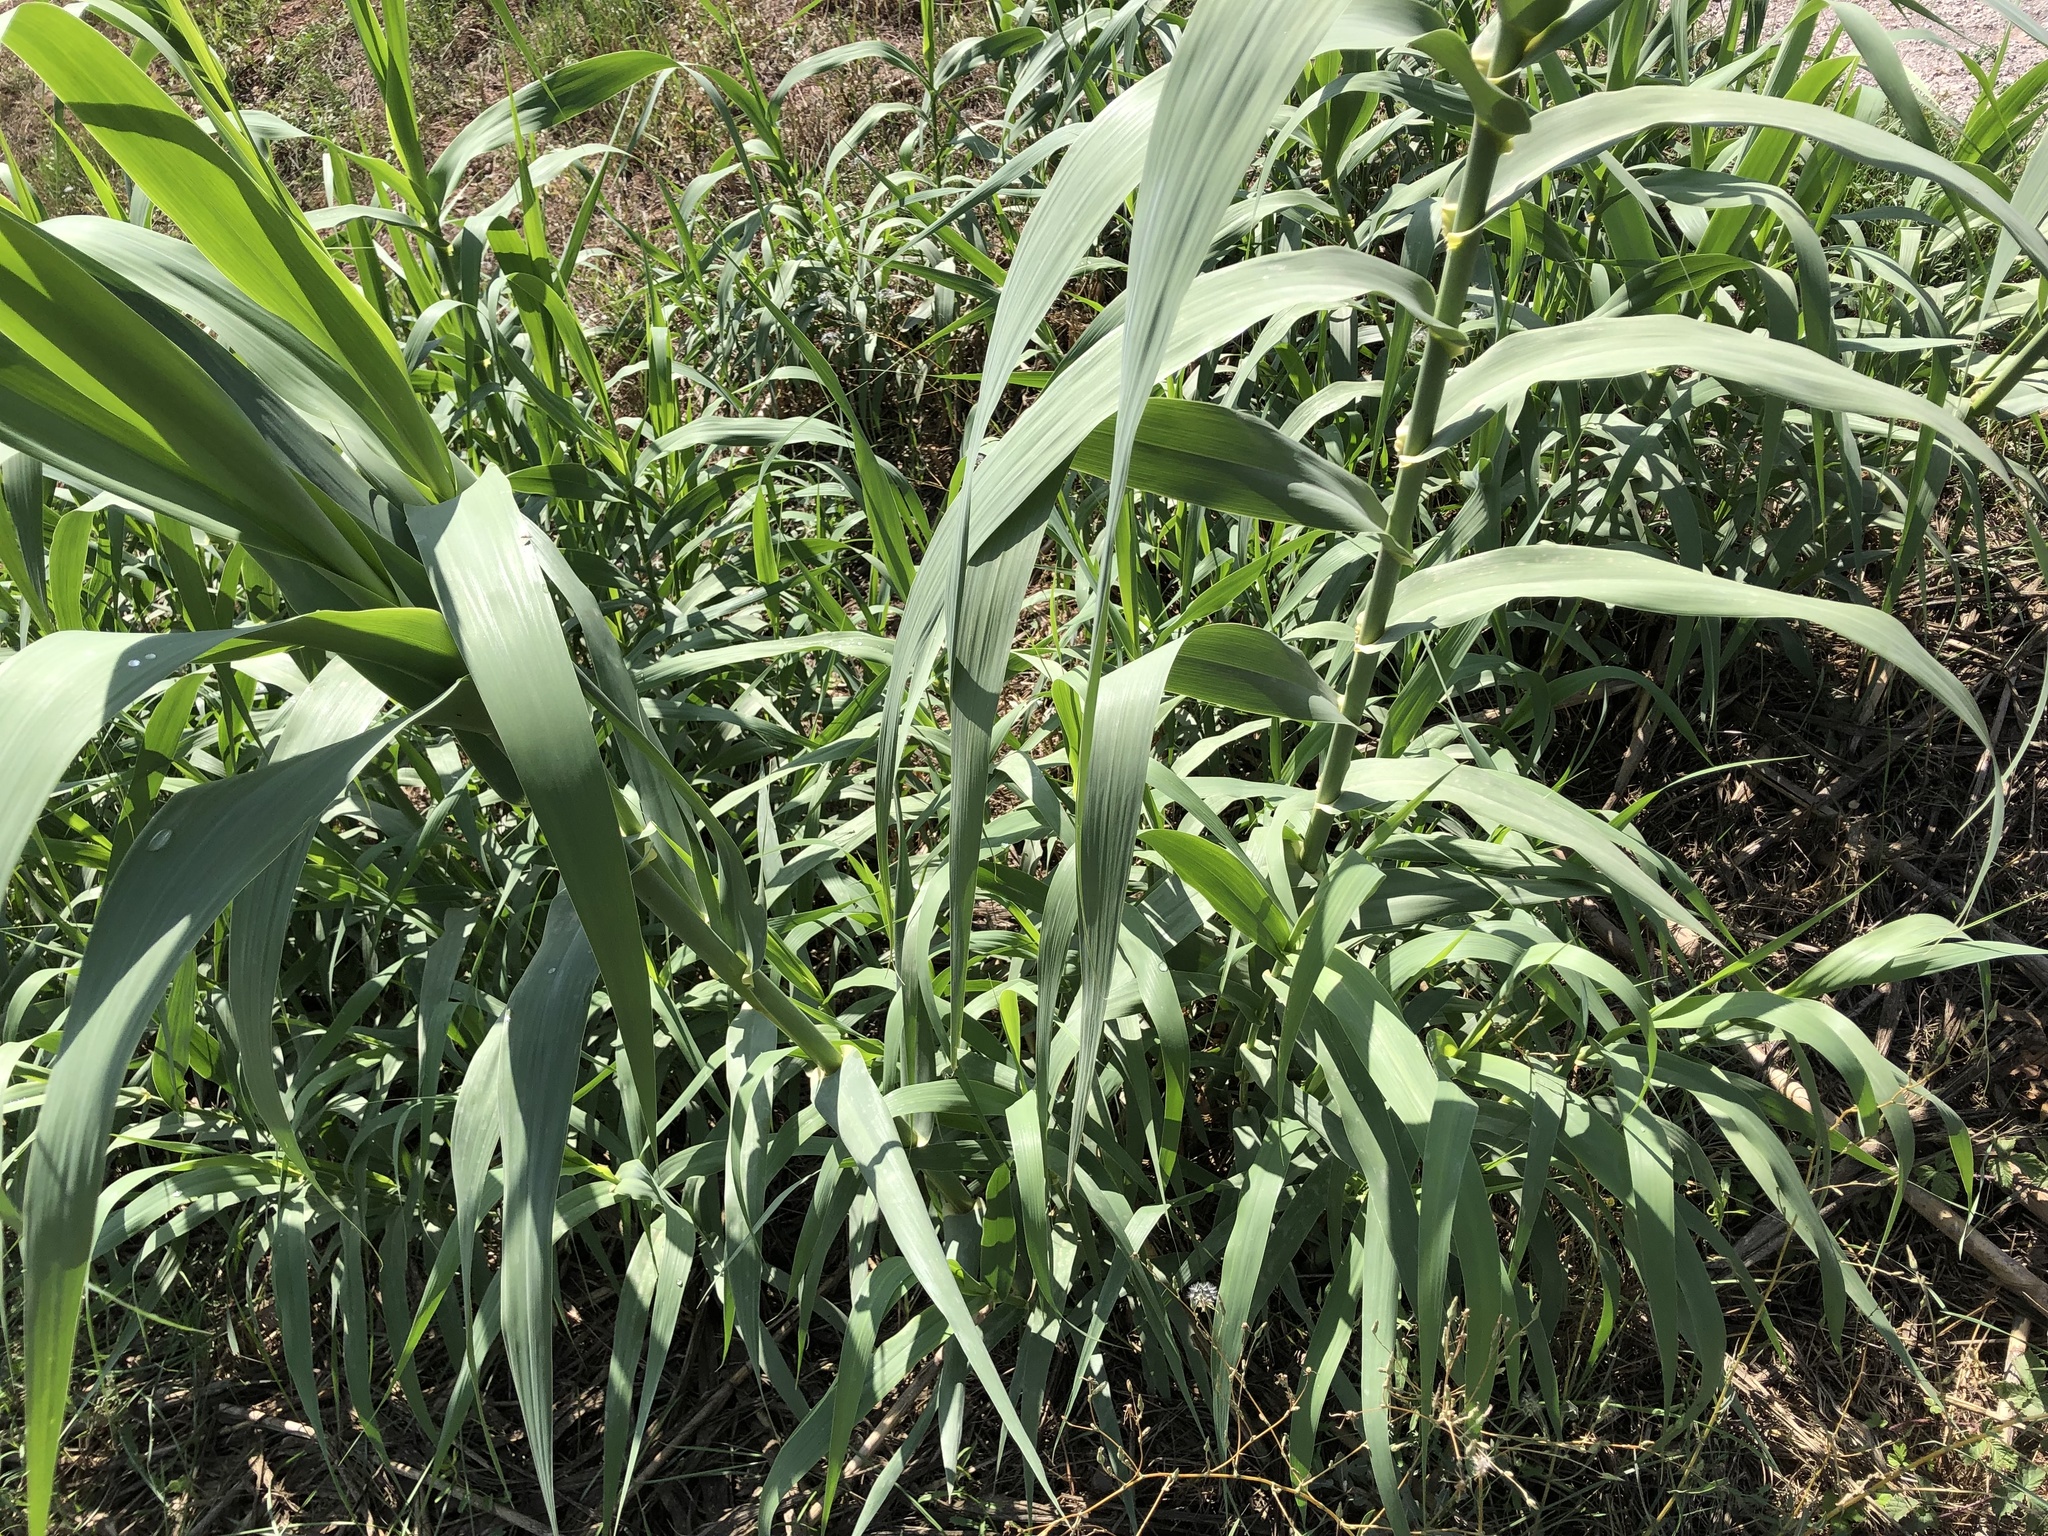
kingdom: Plantae
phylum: Tracheophyta
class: Liliopsida
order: Poales
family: Poaceae
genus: Arundo
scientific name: Arundo donax
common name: Giant reed
